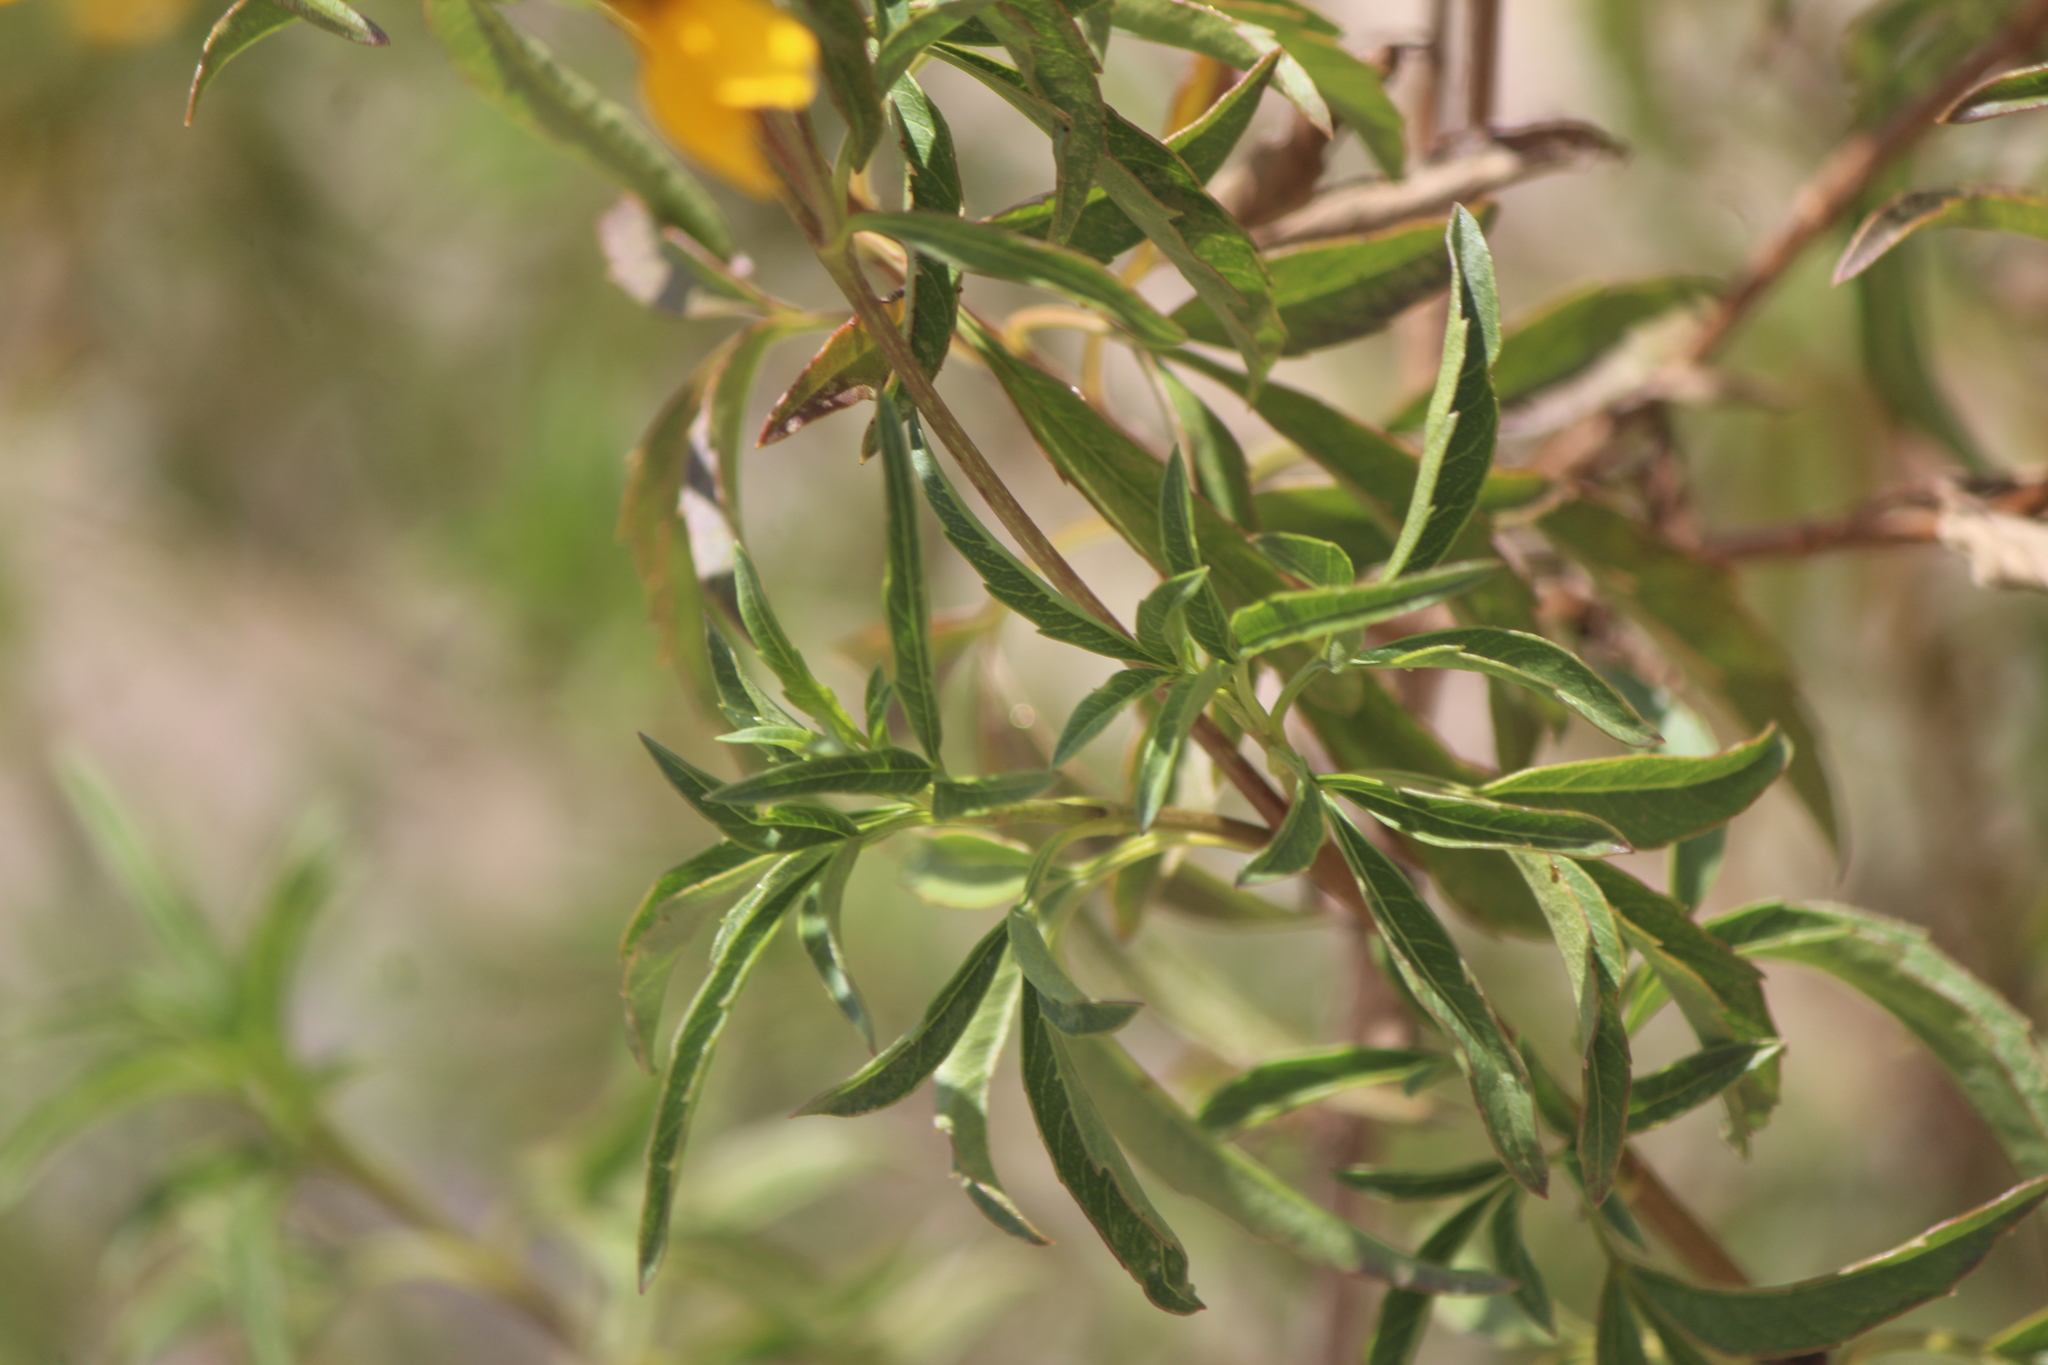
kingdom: Plantae
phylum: Tracheophyta
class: Magnoliopsida
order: Asterales
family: Asteraceae
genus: Electranthera
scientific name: Electranthera mutica
